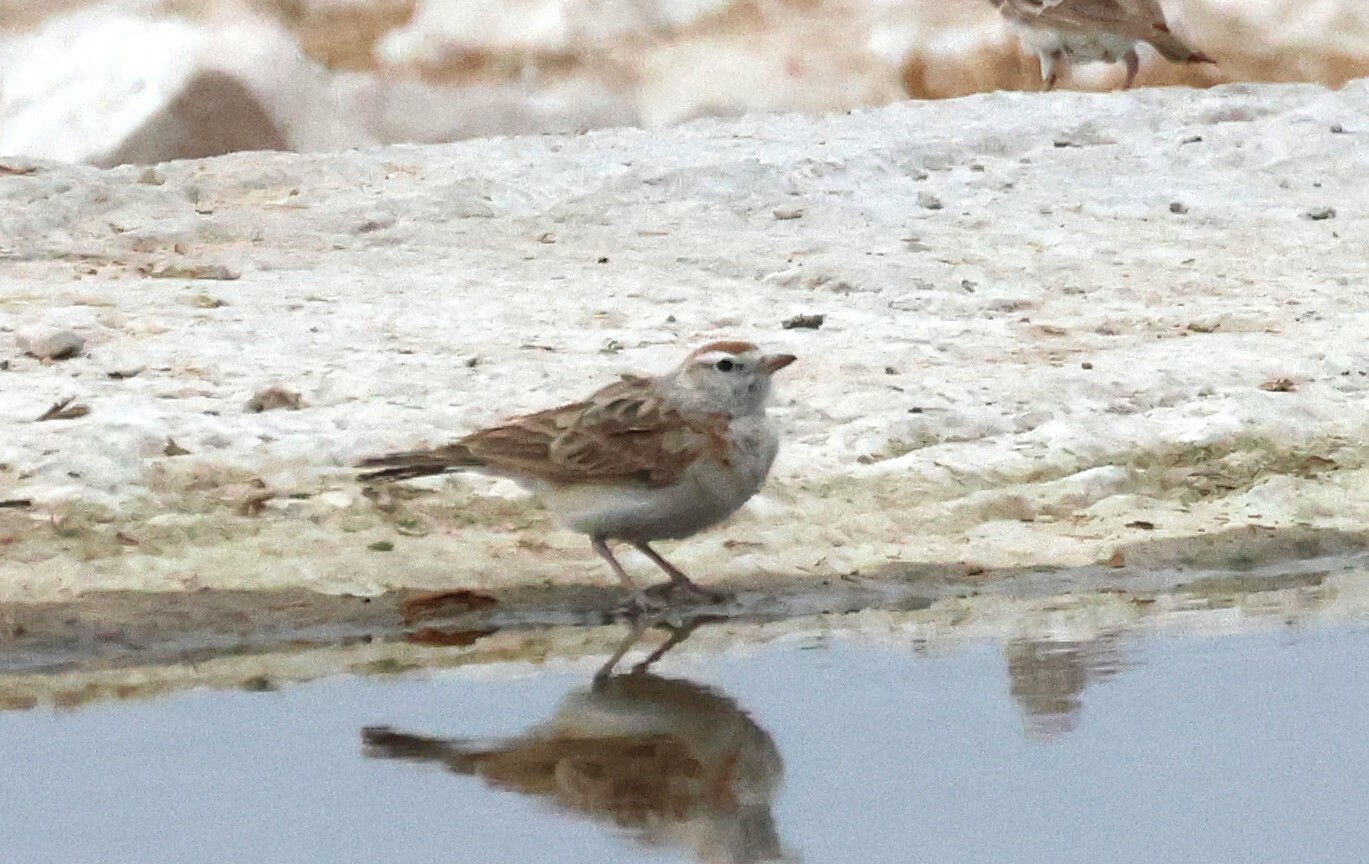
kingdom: Animalia
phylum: Chordata
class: Aves
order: Passeriformes
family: Alaudidae
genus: Calandrella
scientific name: Calandrella cinerea
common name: Red-capped lark
